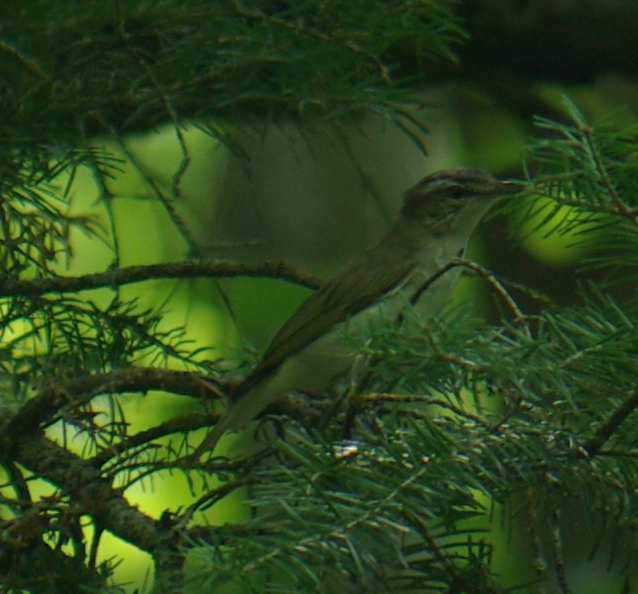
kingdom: Animalia
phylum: Chordata
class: Aves
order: Passeriformes
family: Vireonidae
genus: Vireo
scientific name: Vireo olivaceus
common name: Red-eyed vireo
